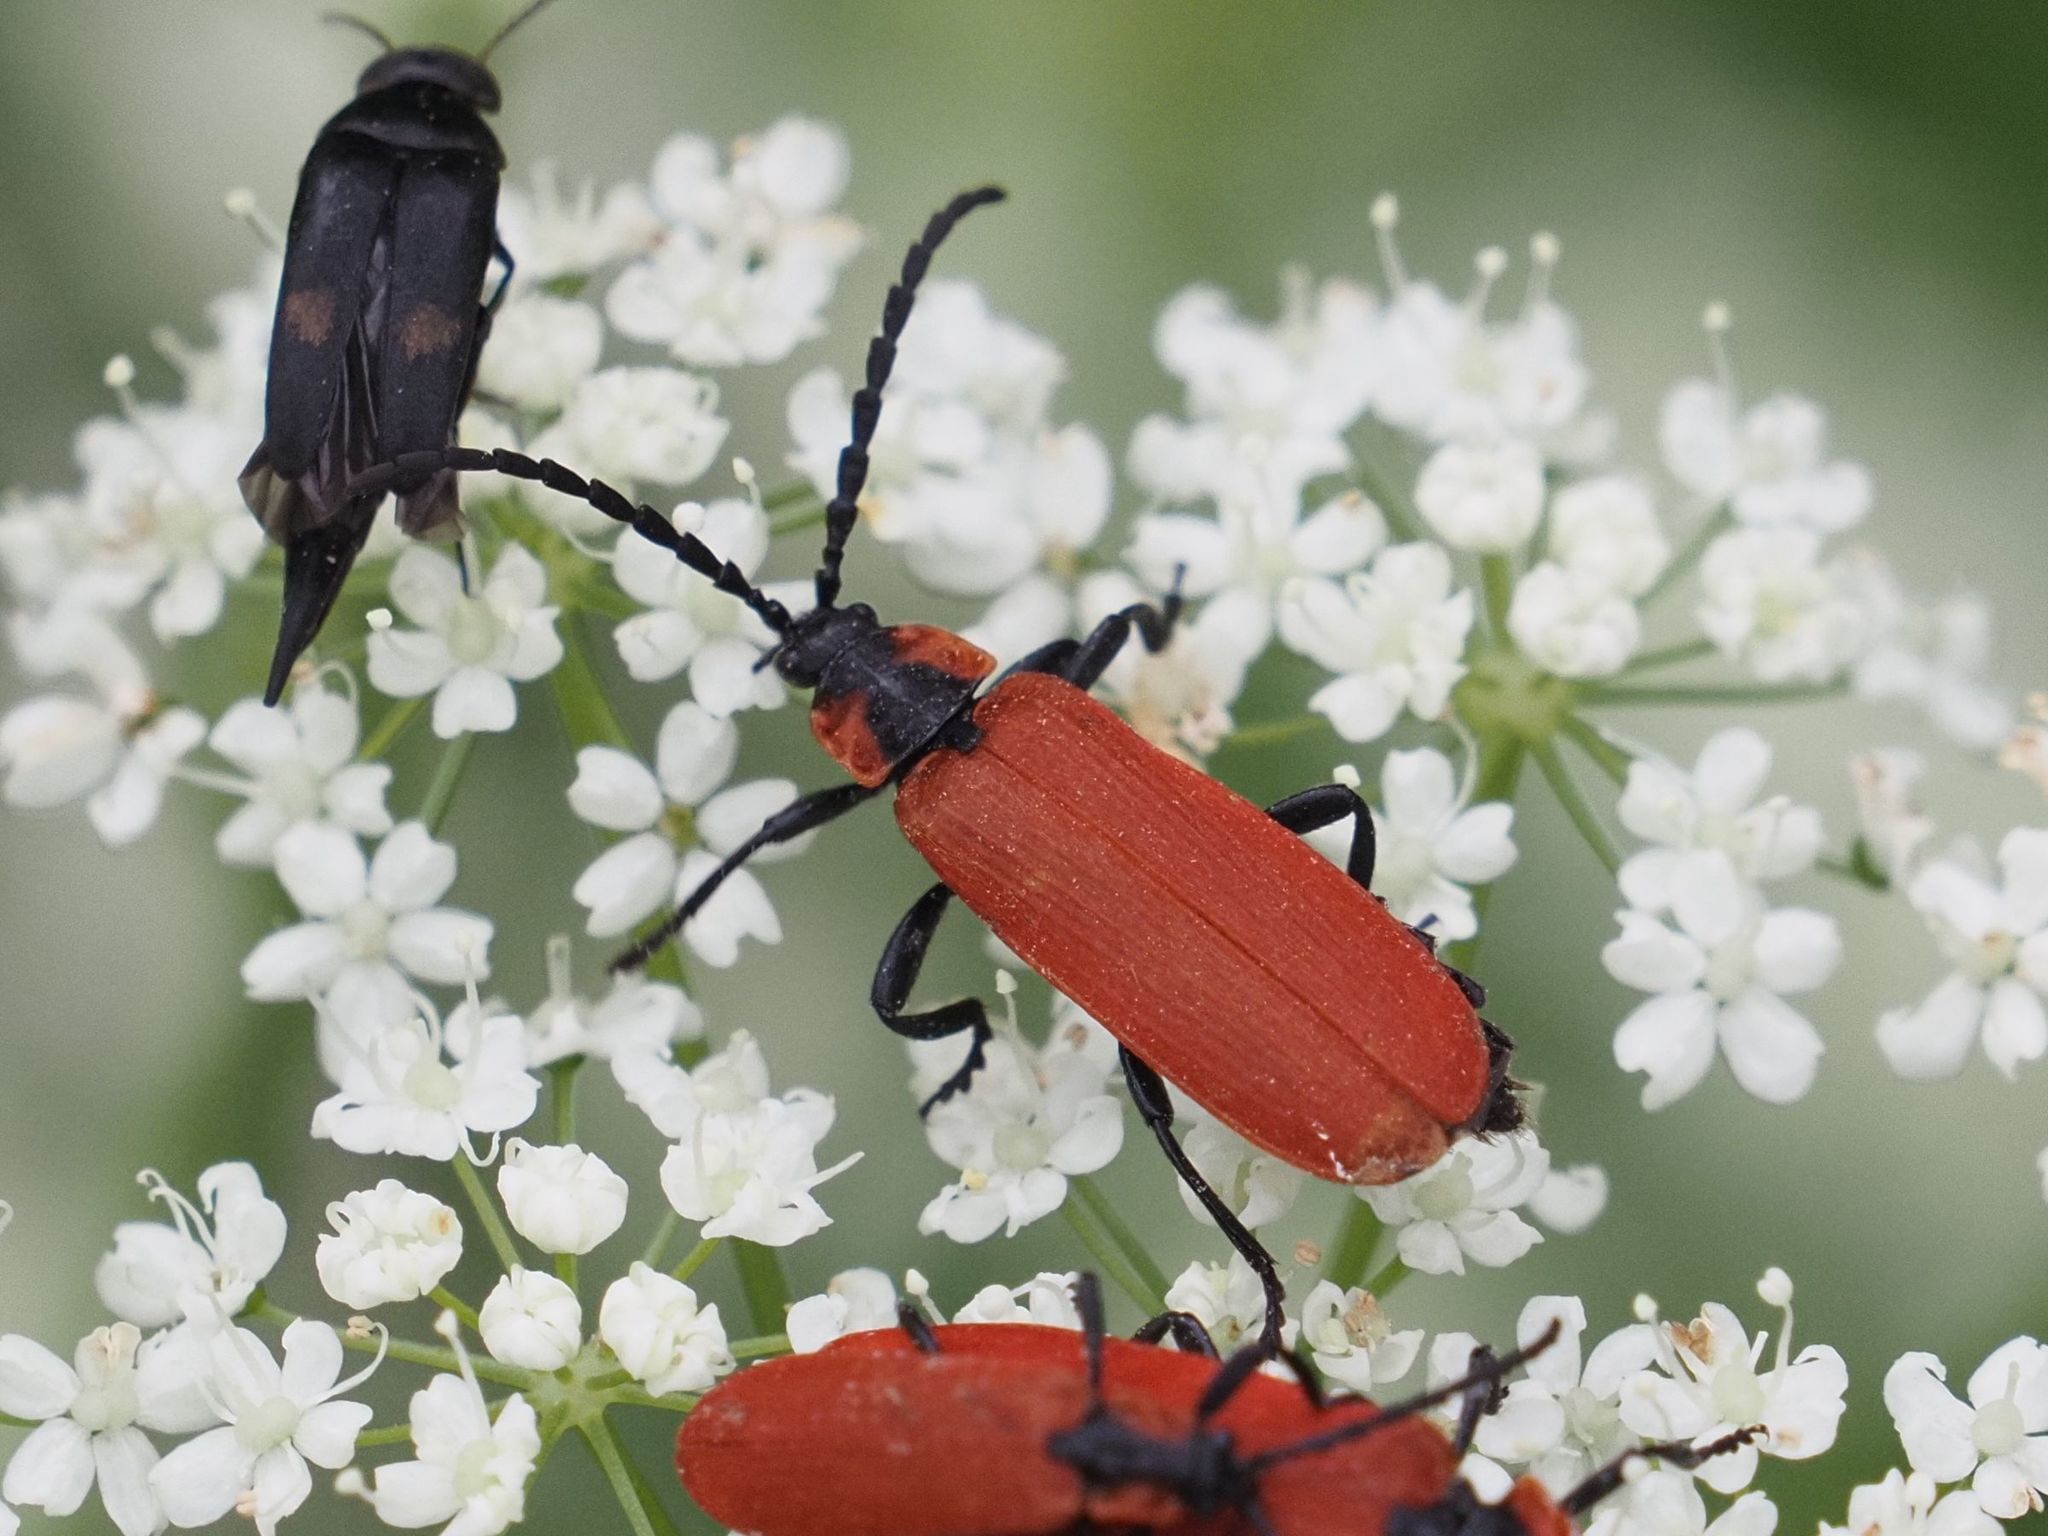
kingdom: Animalia
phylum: Arthropoda
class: Insecta
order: Coleoptera
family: Lycidae
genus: Lygistopterus
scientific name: Lygistopterus sanguineus
